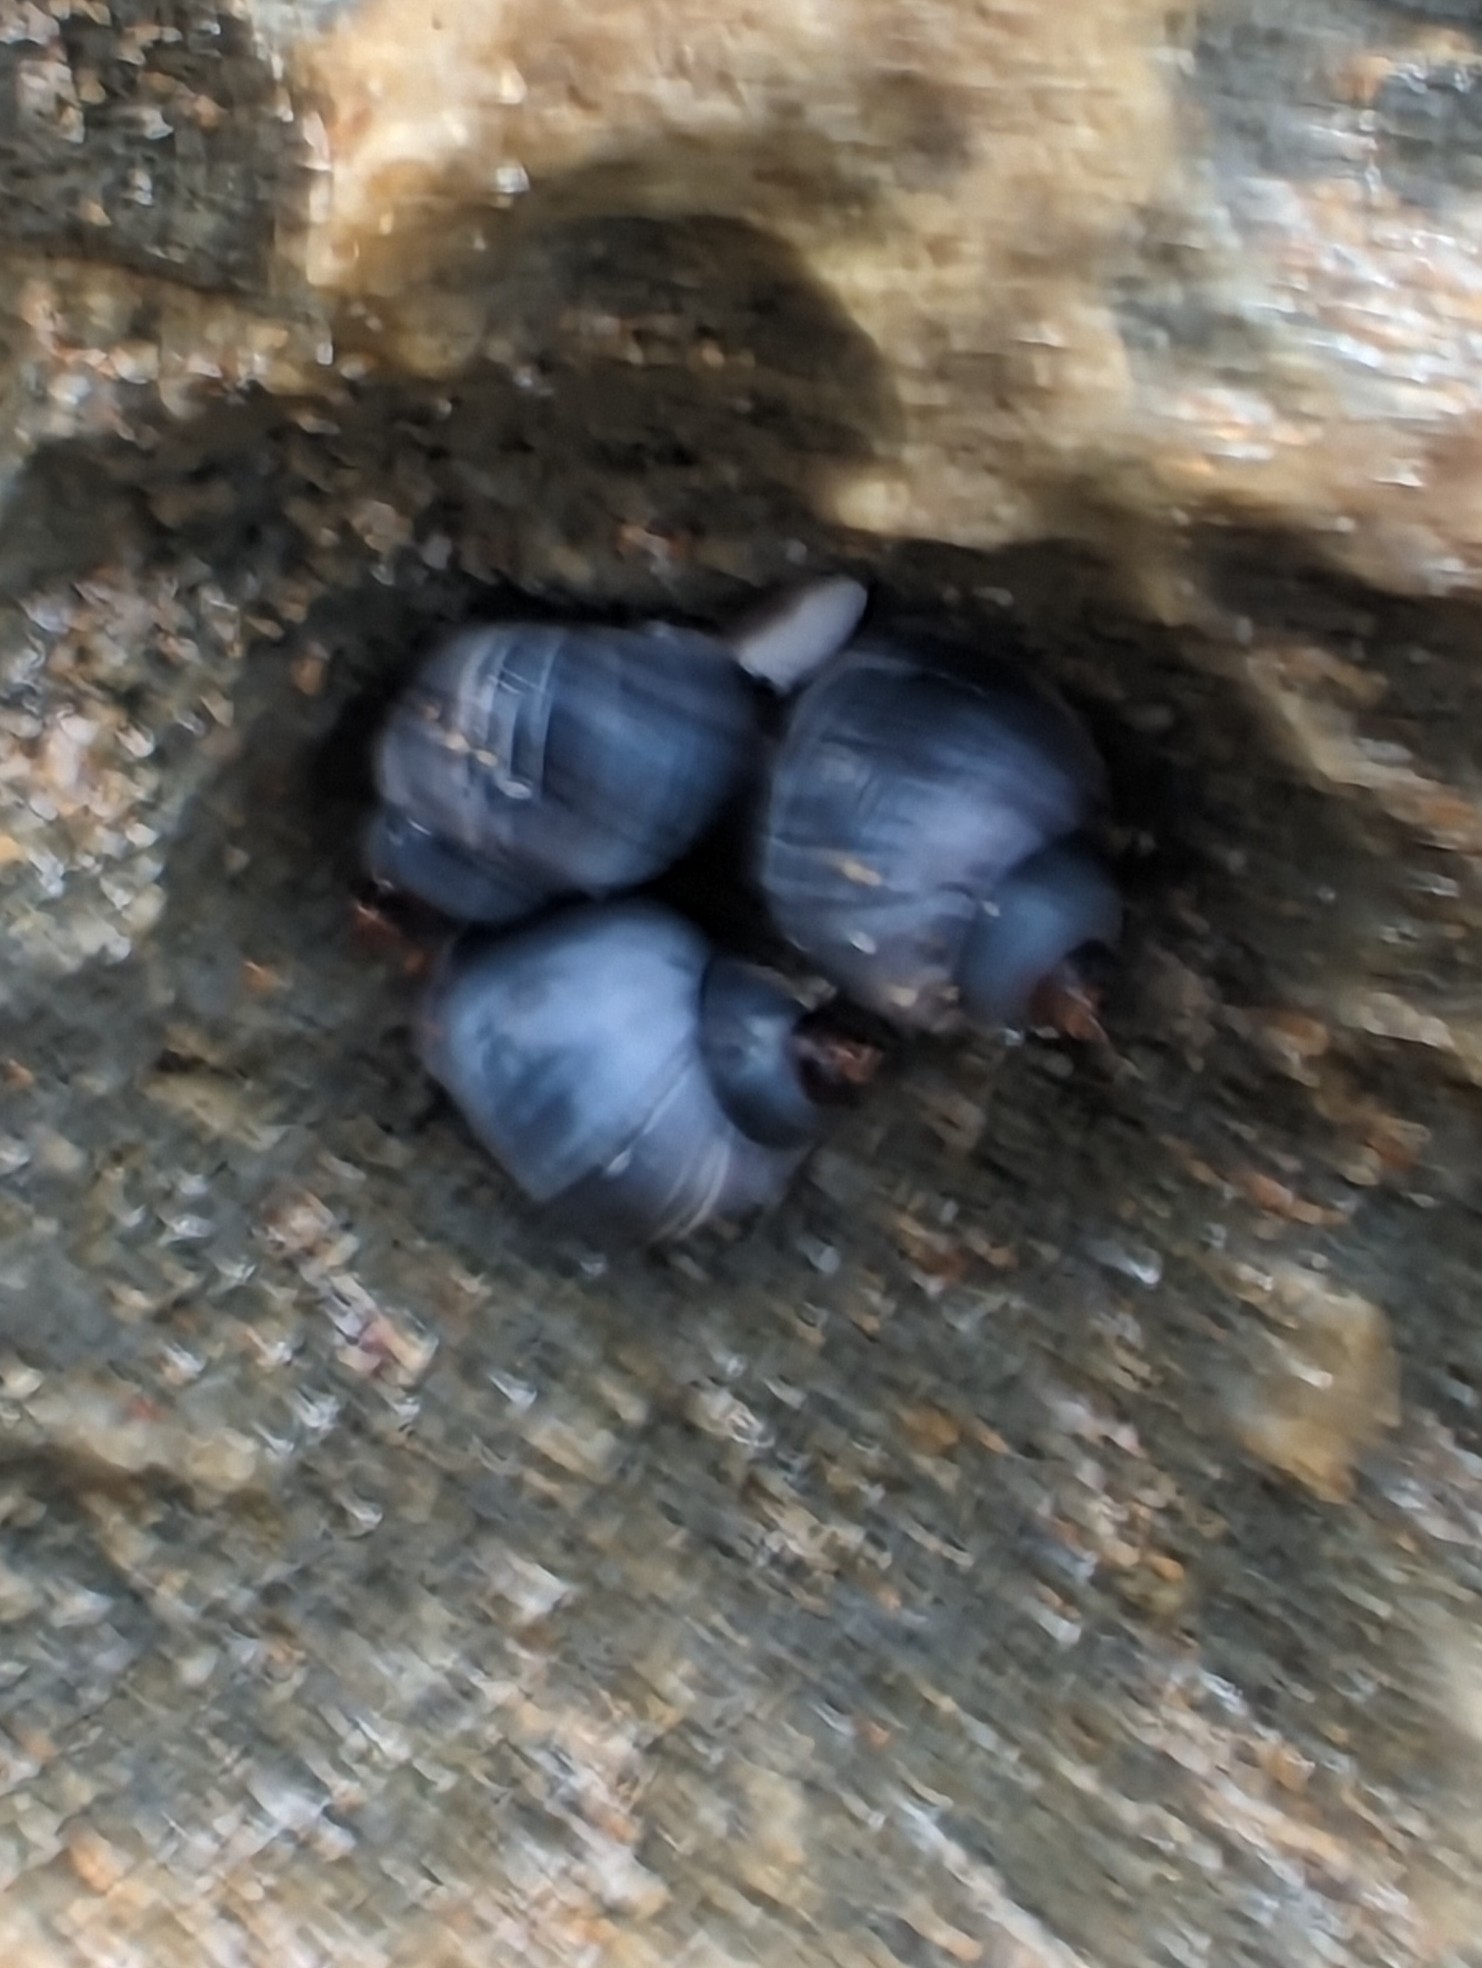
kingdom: Animalia
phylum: Mollusca
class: Gastropoda
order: Littorinimorpha
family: Littorinidae
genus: Austrolittorina
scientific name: Austrolittorina unifasciata
